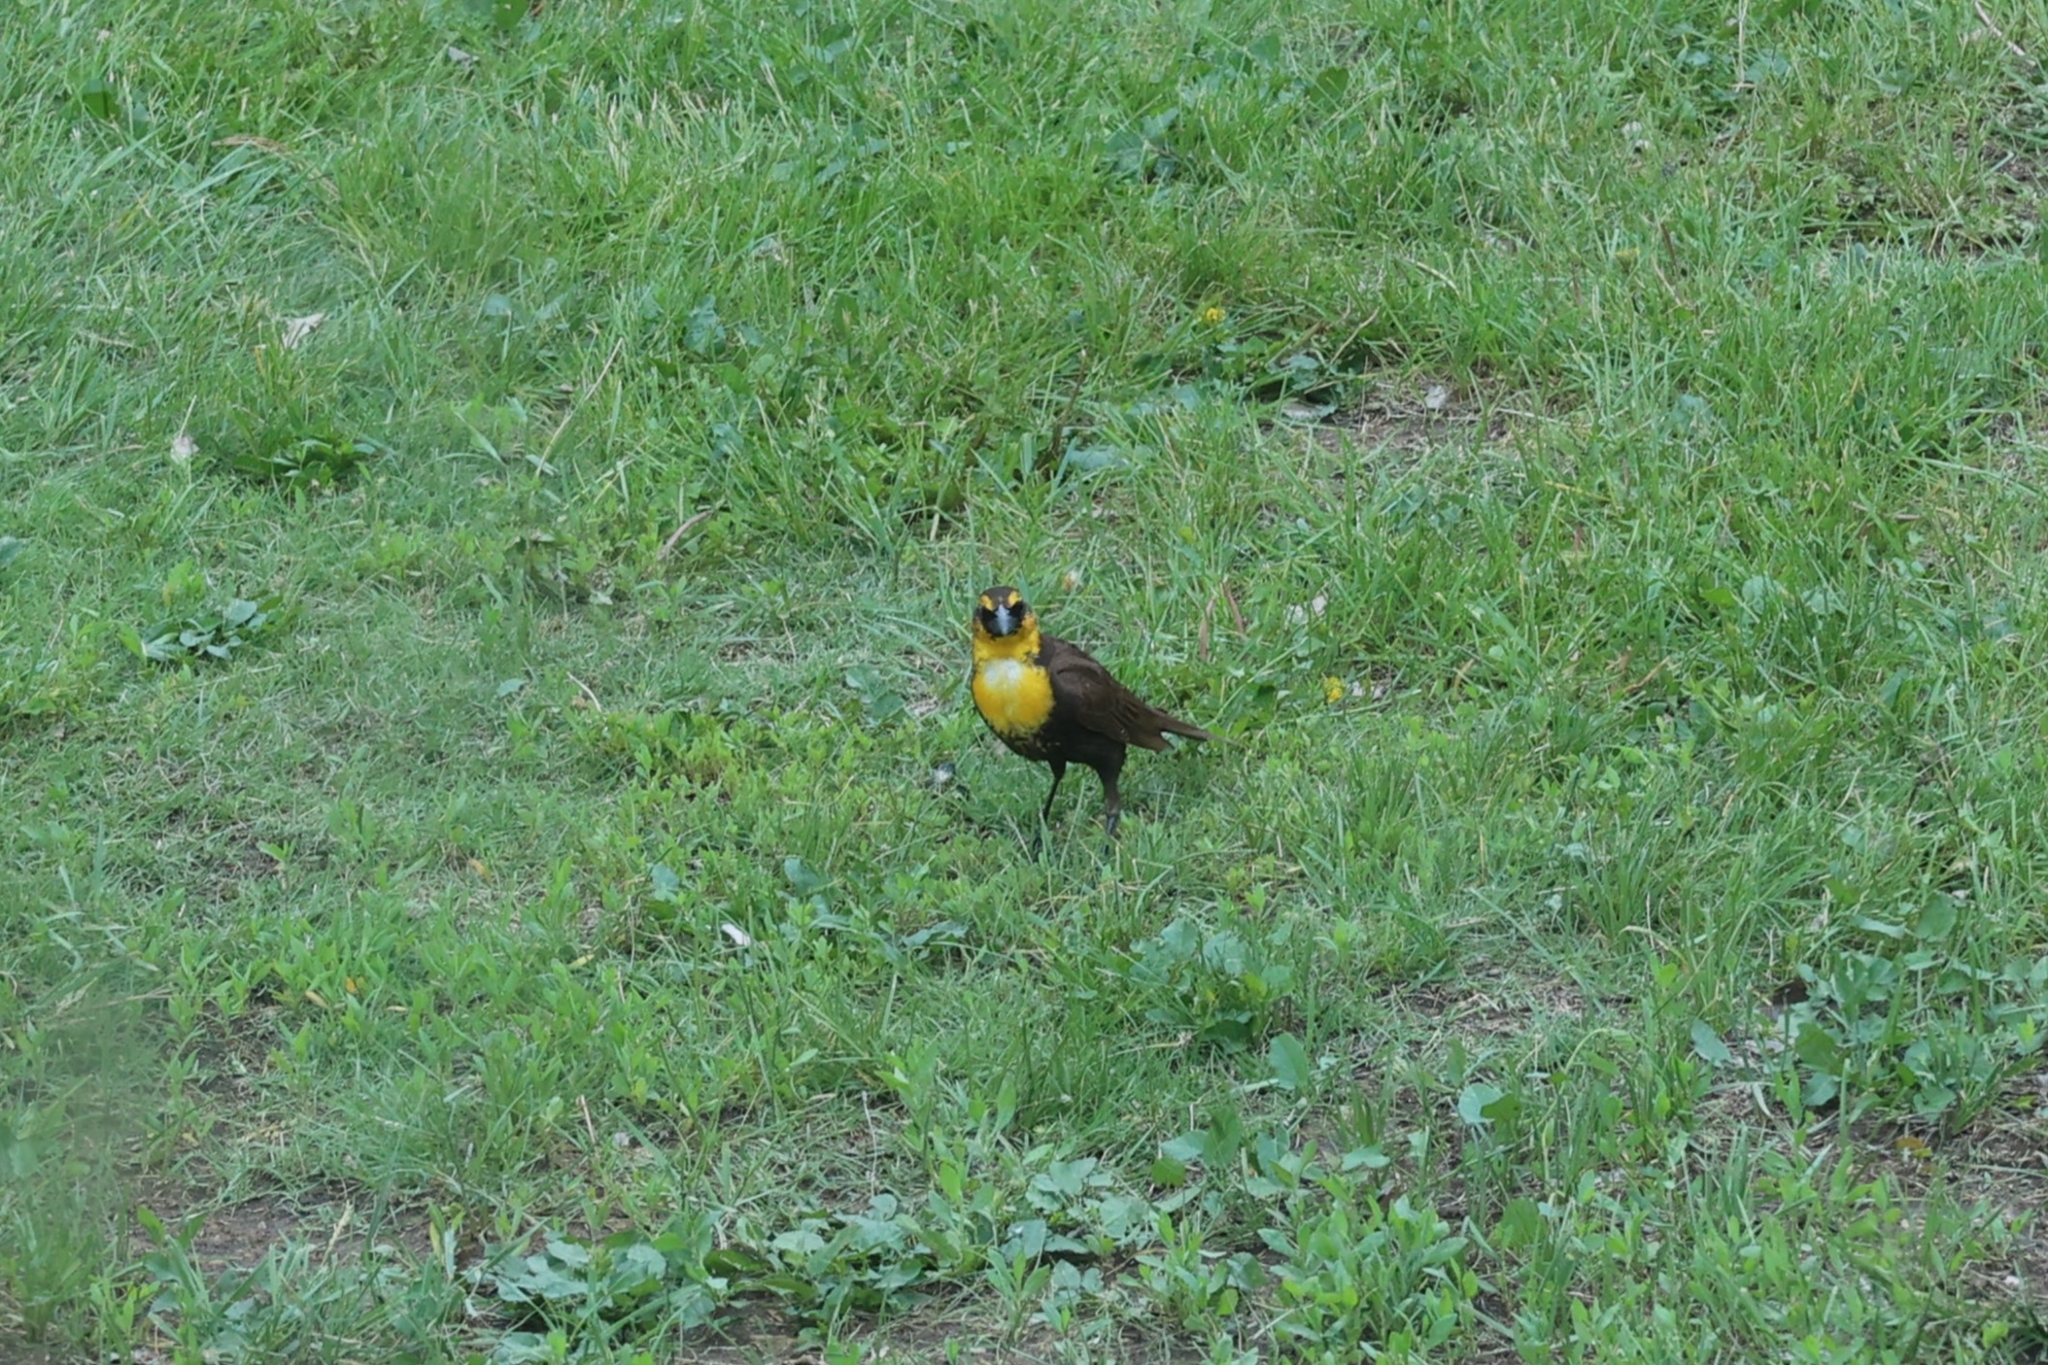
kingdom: Animalia
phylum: Chordata
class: Aves
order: Passeriformes
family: Icteridae
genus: Xanthocephalus
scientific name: Xanthocephalus xanthocephalus
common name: Yellow-headed blackbird
